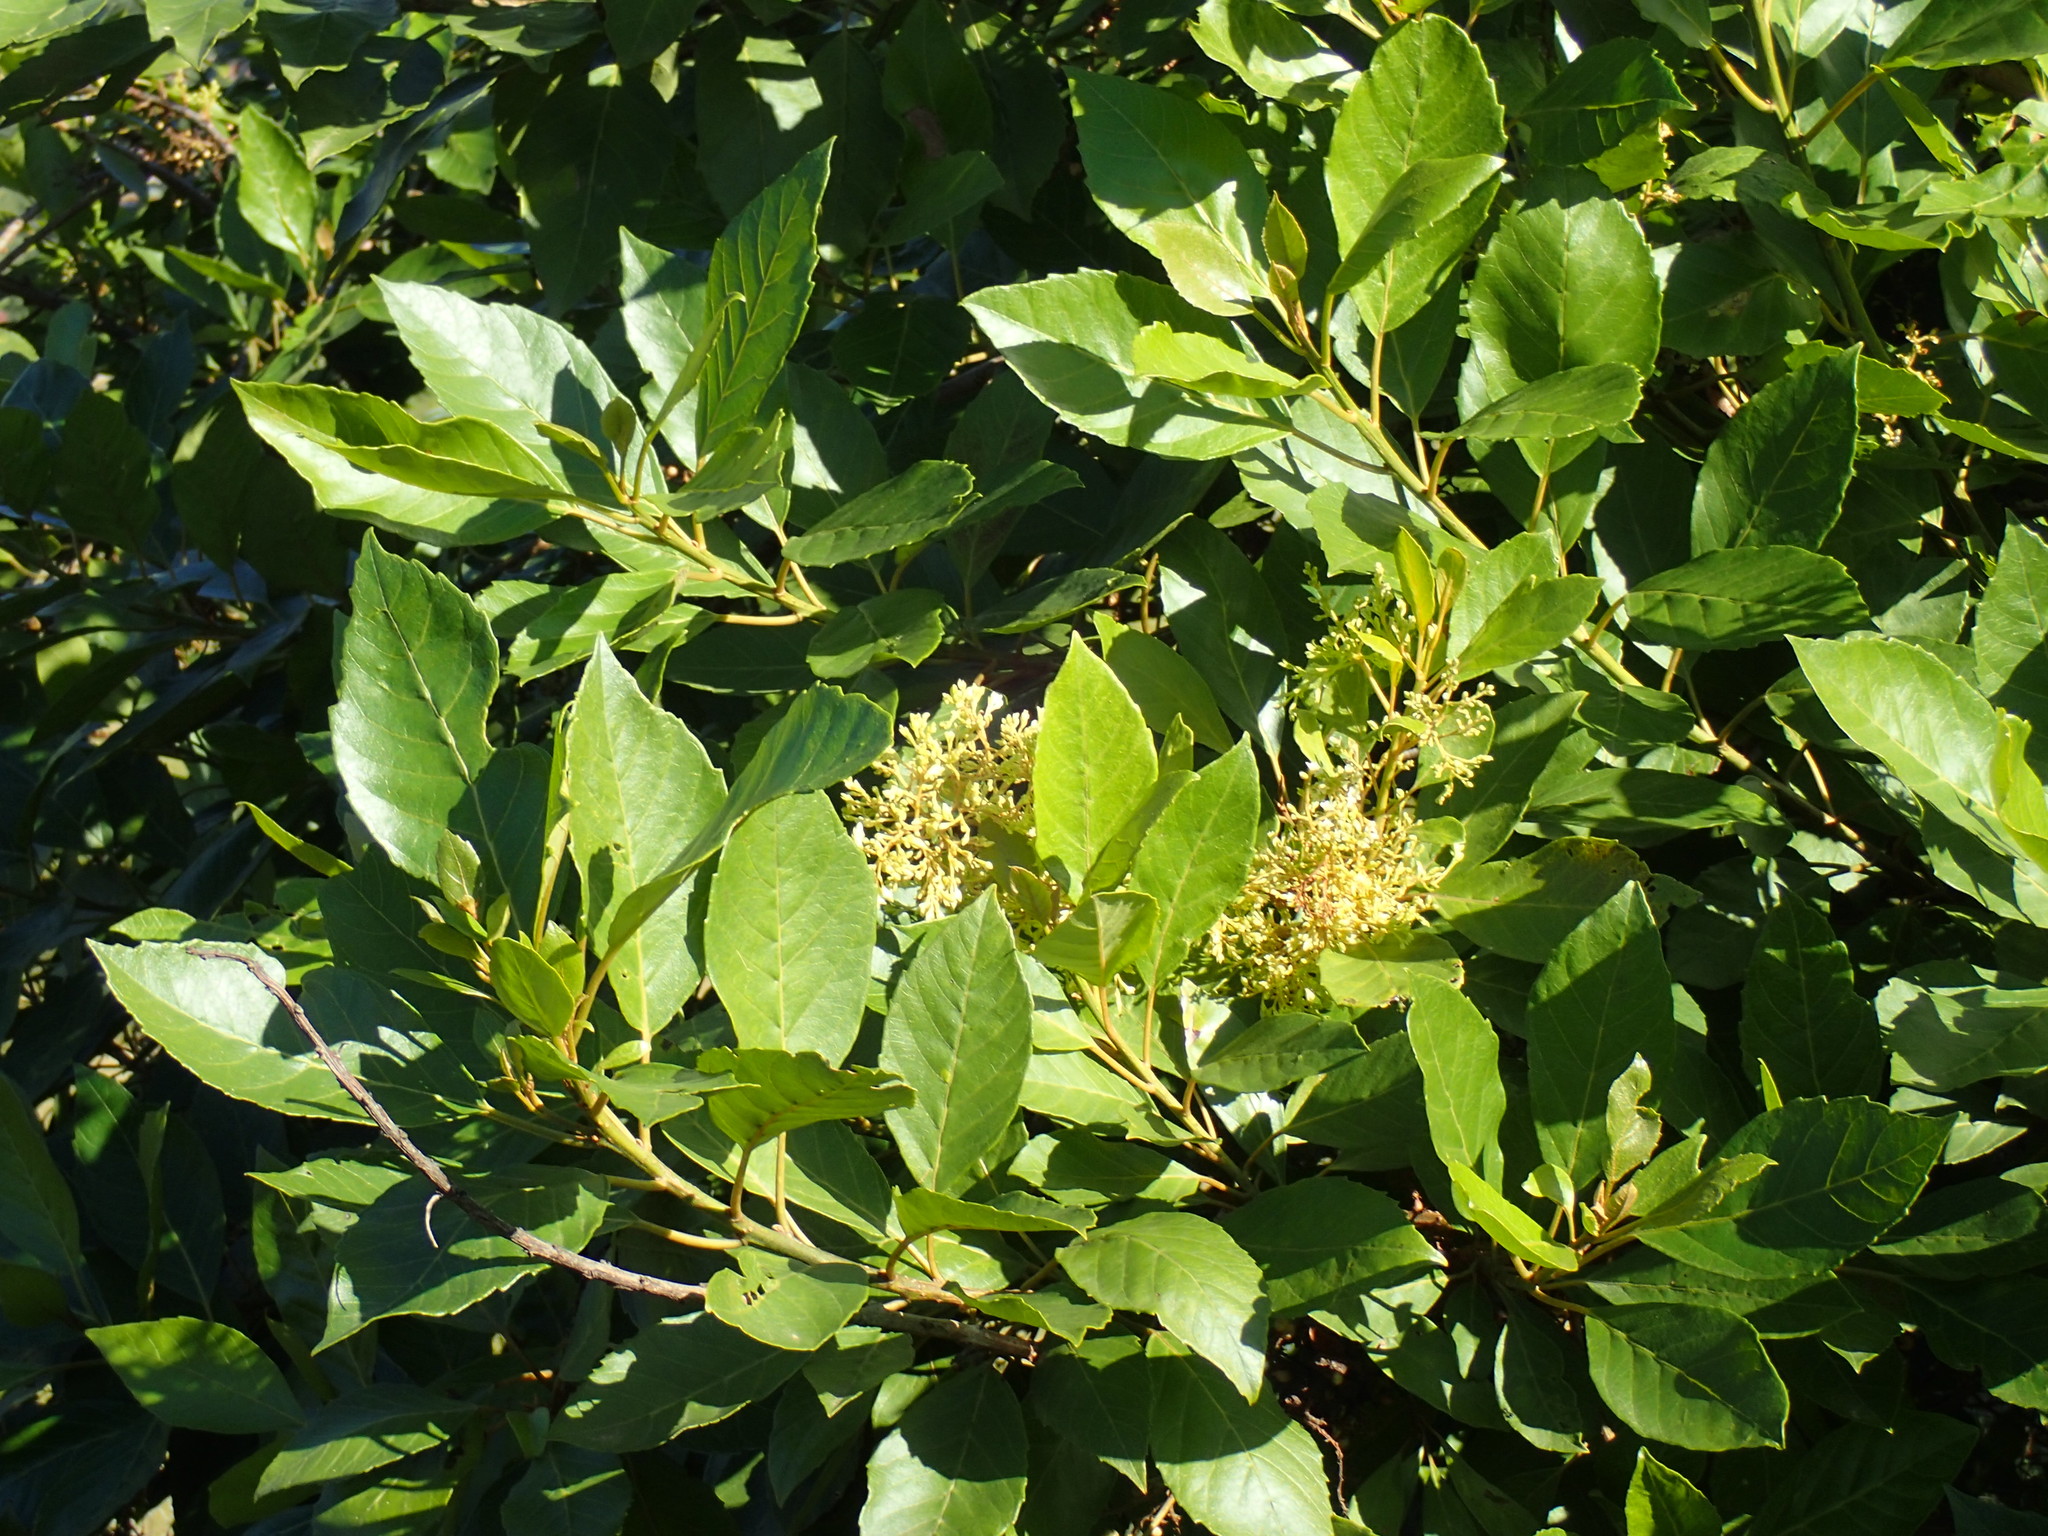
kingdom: Plantae
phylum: Tracheophyta
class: Magnoliopsida
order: Ericales
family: Primulaceae
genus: Maesa
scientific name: Maesa lanceolata
